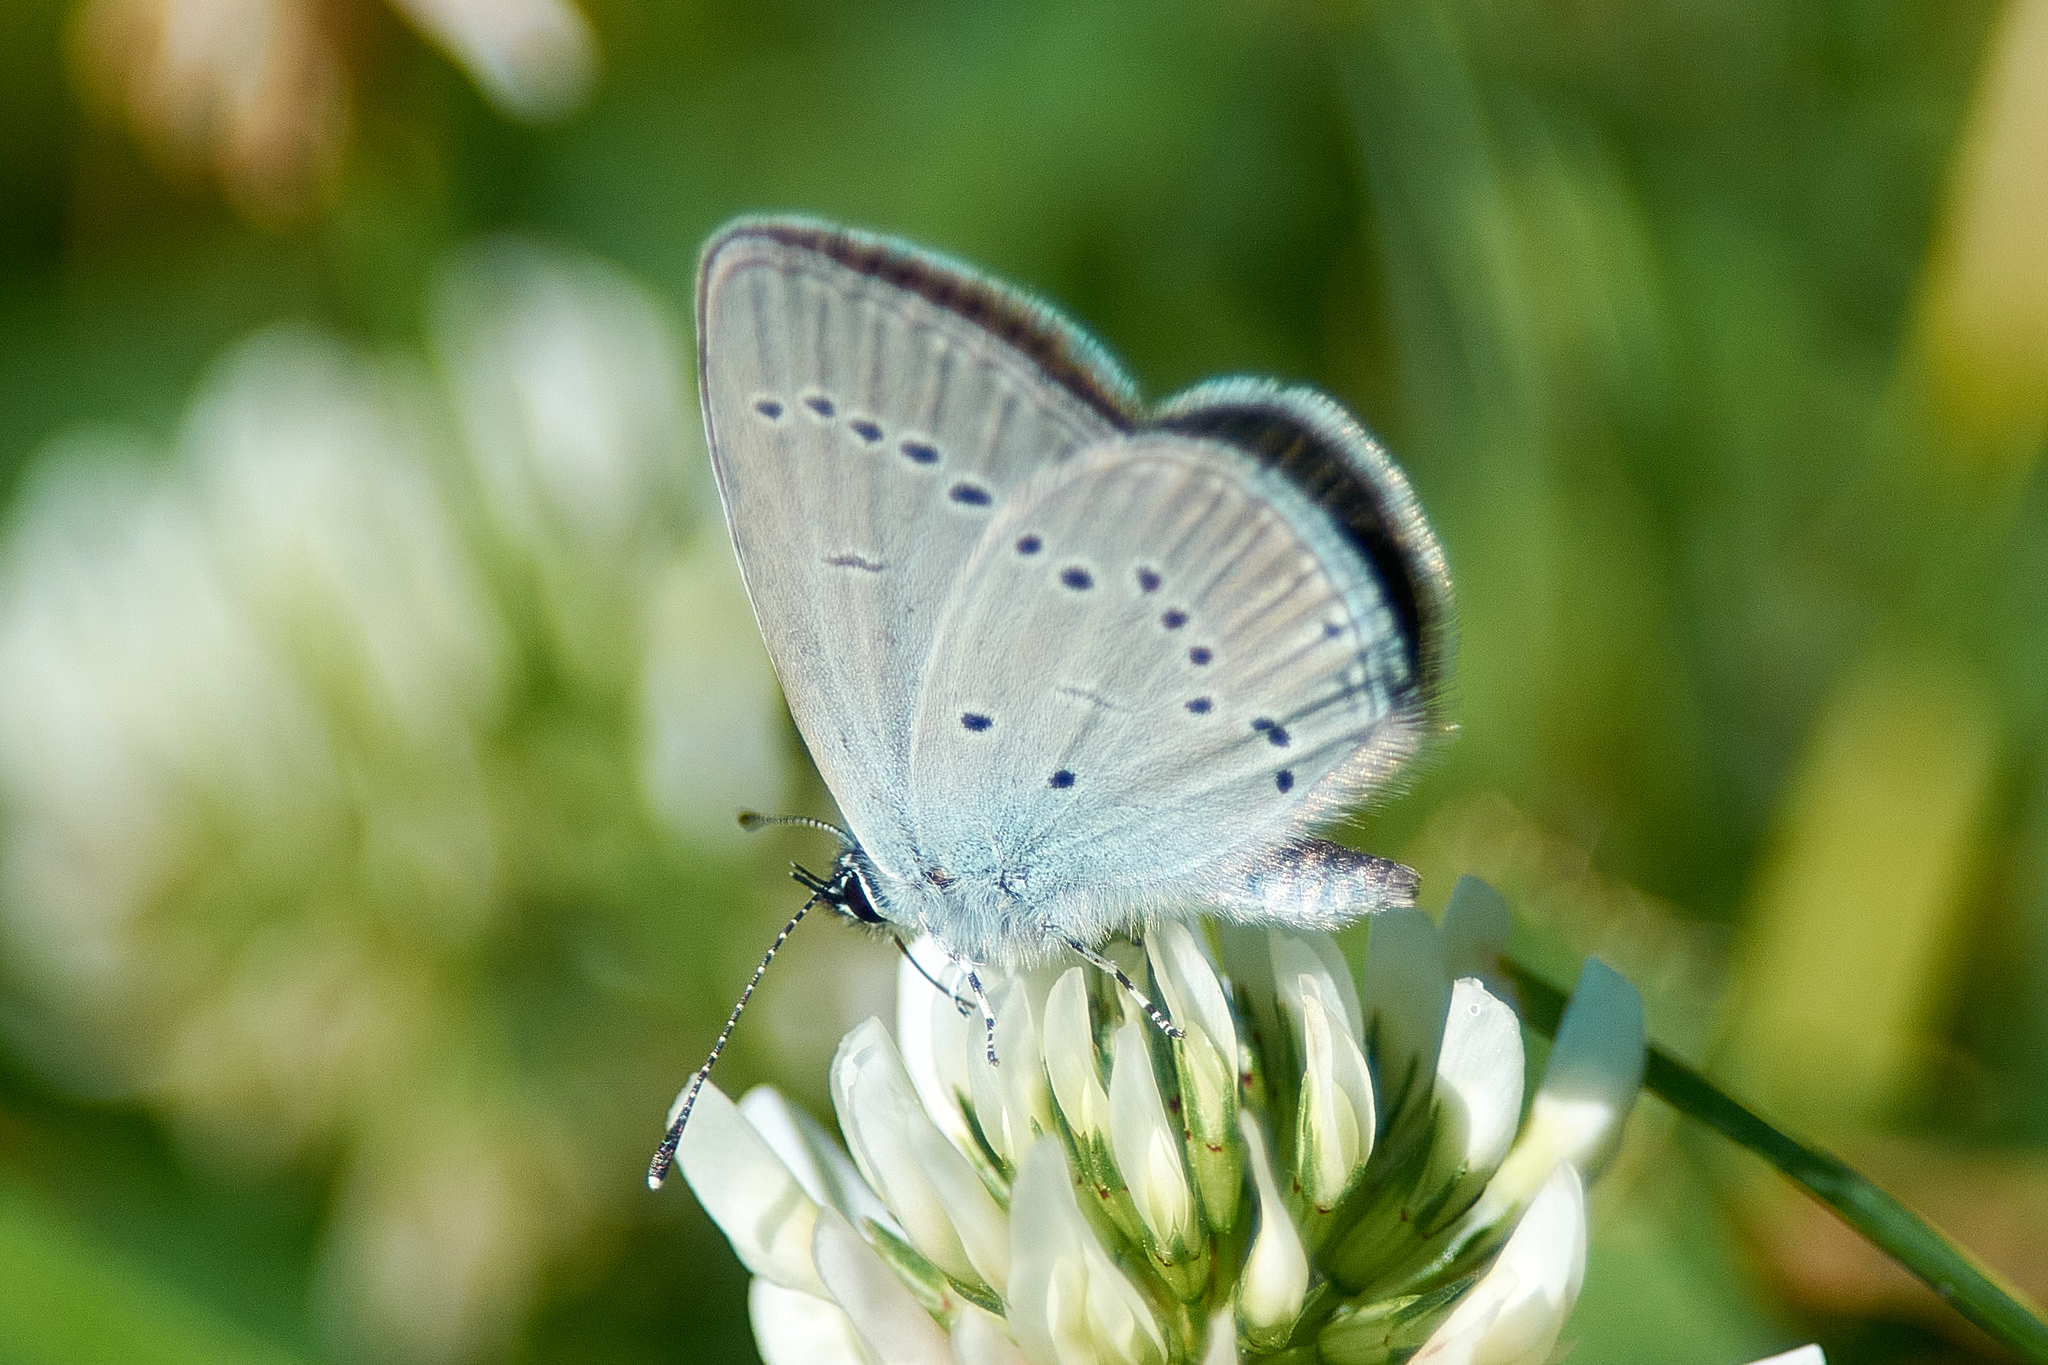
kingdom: Animalia
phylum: Arthropoda
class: Insecta
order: Lepidoptera
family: Lycaenidae
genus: Cupido
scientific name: Cupido minimus
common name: Small blue
